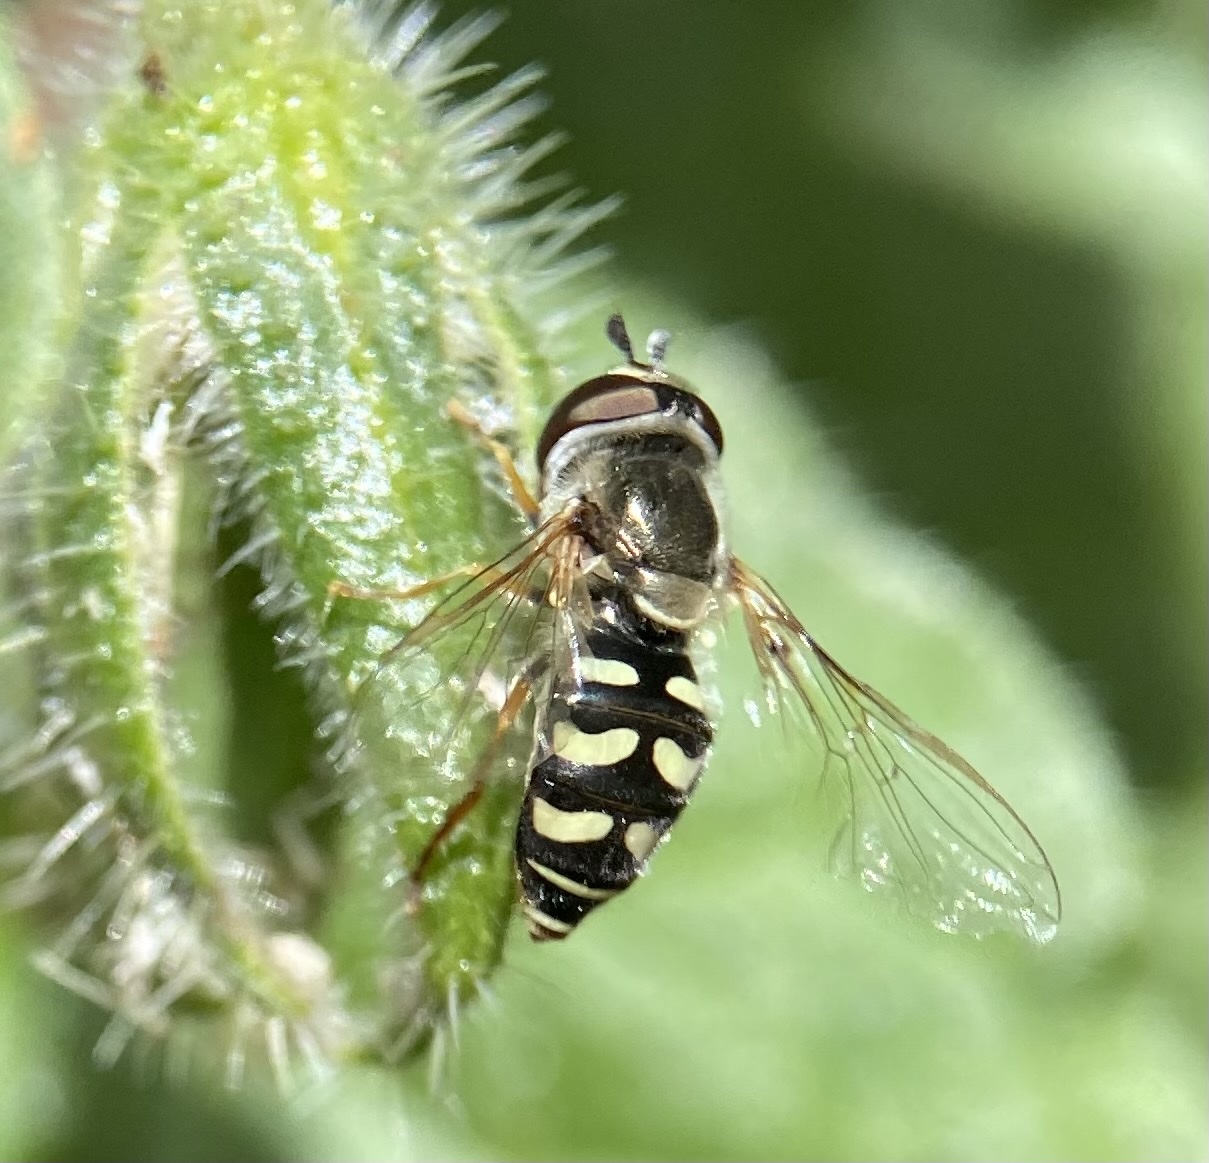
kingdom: Animalia
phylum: Arthropoda
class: Insecta
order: Diptera
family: Syrphidae
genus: Eupeodes
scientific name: Eupeodes volucris
